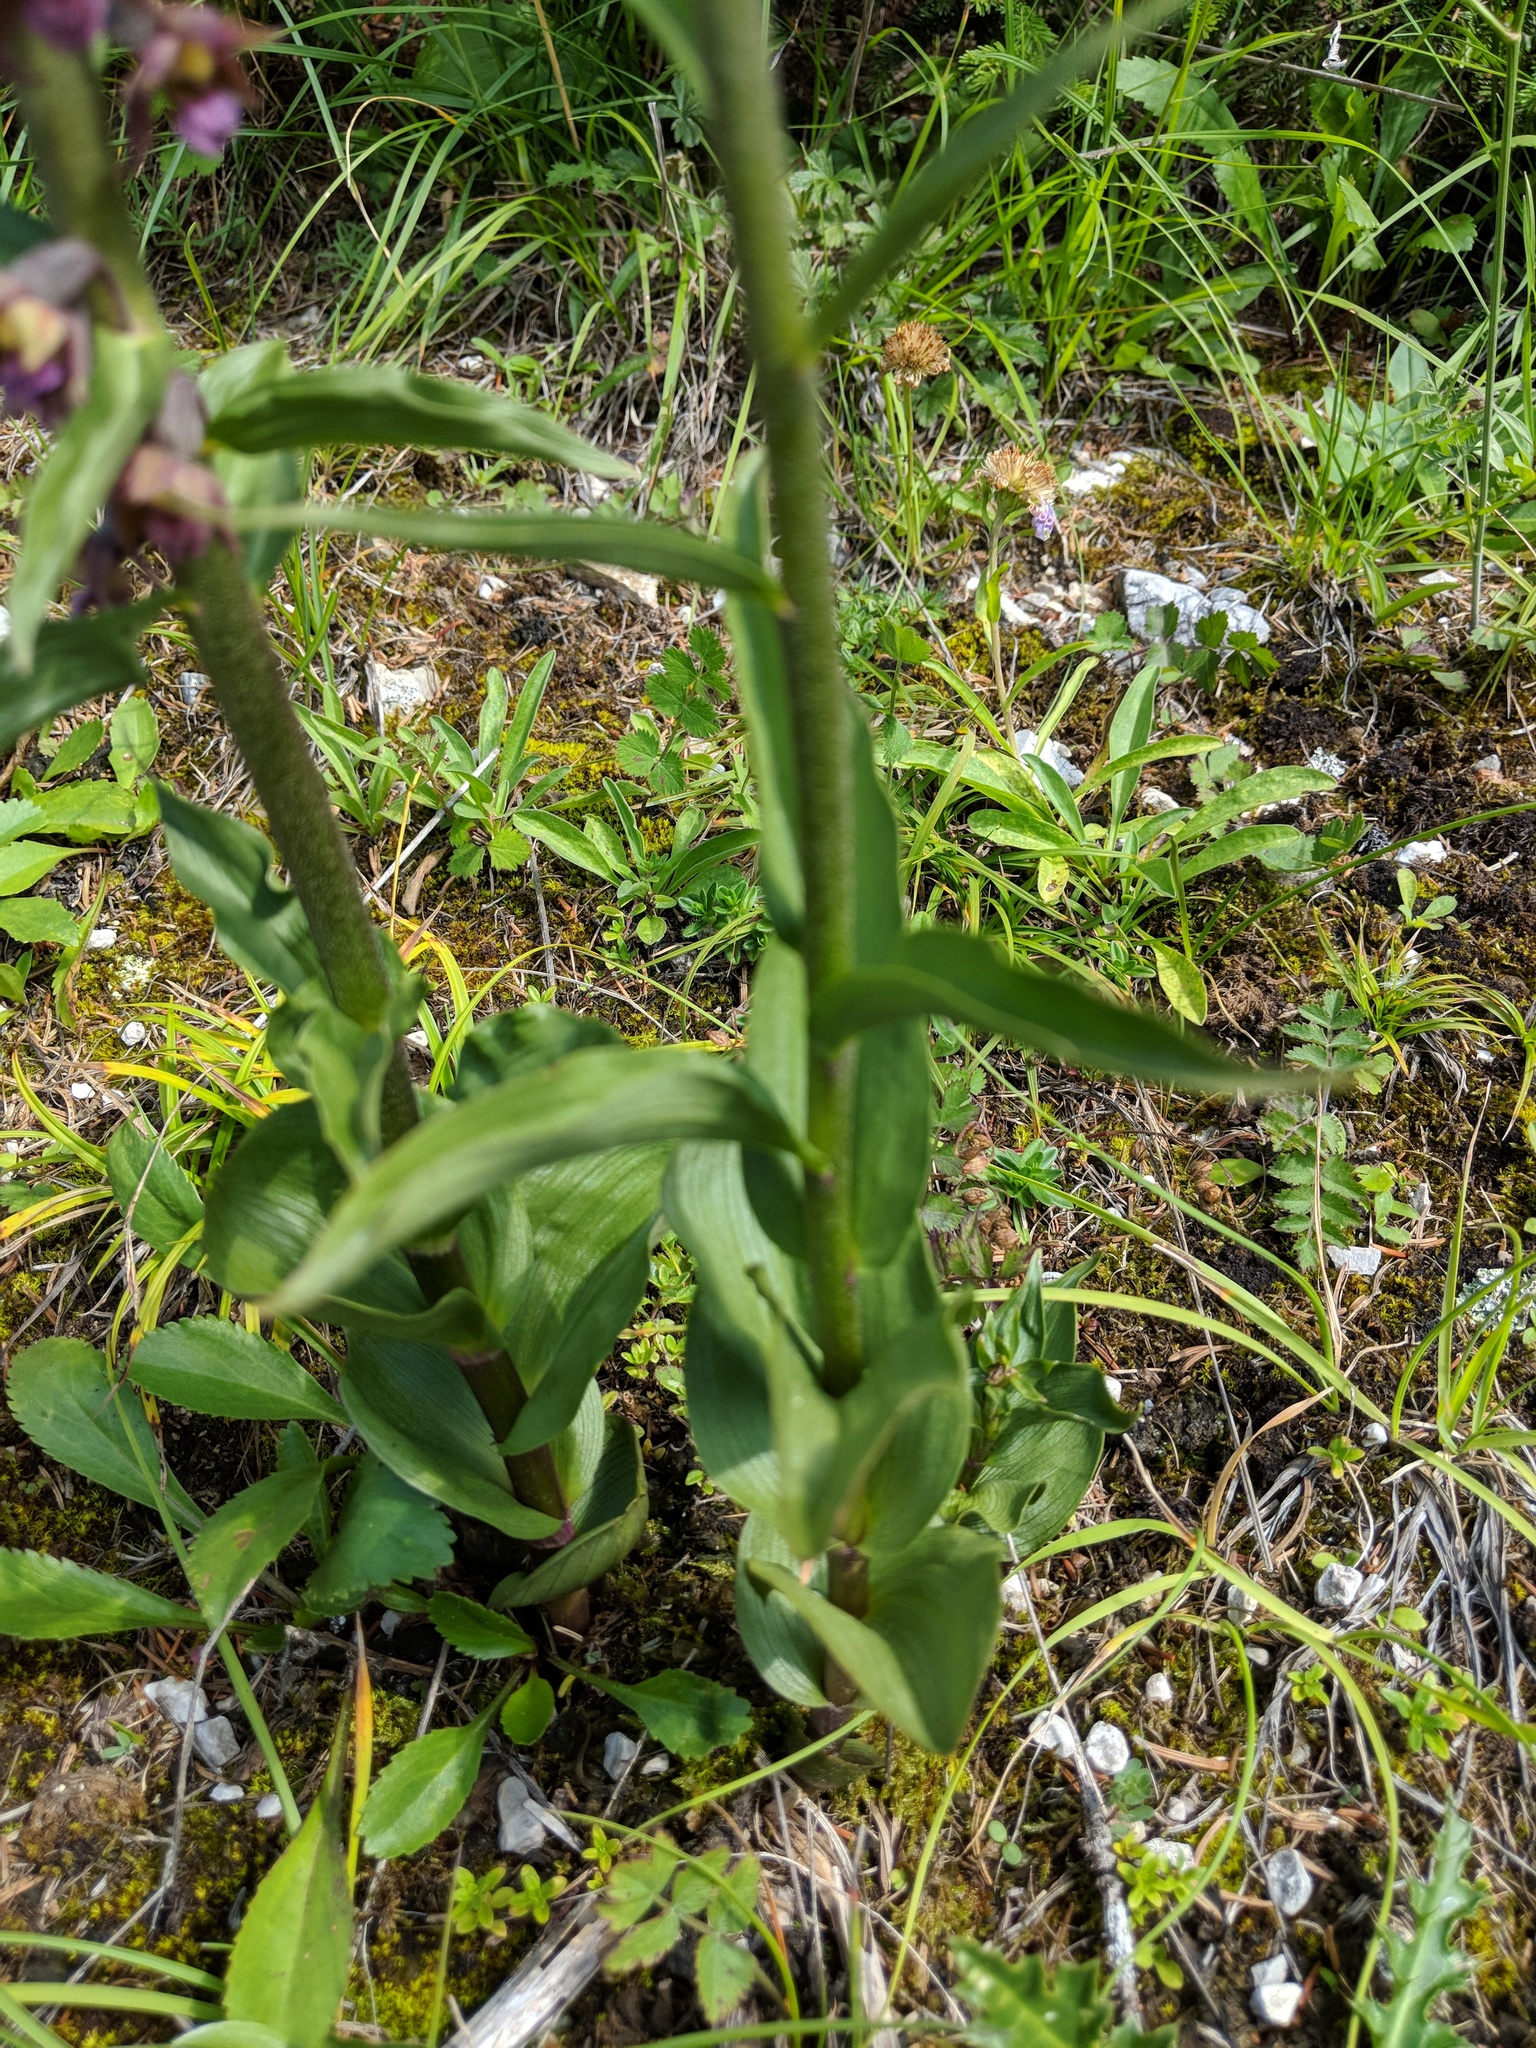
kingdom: Plantae
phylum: Tracheophyta
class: Liliopsida
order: Asparagales
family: Orchidaceae
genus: Epipactis
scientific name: Epipactis atrorubens
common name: Dark-red helleborine
